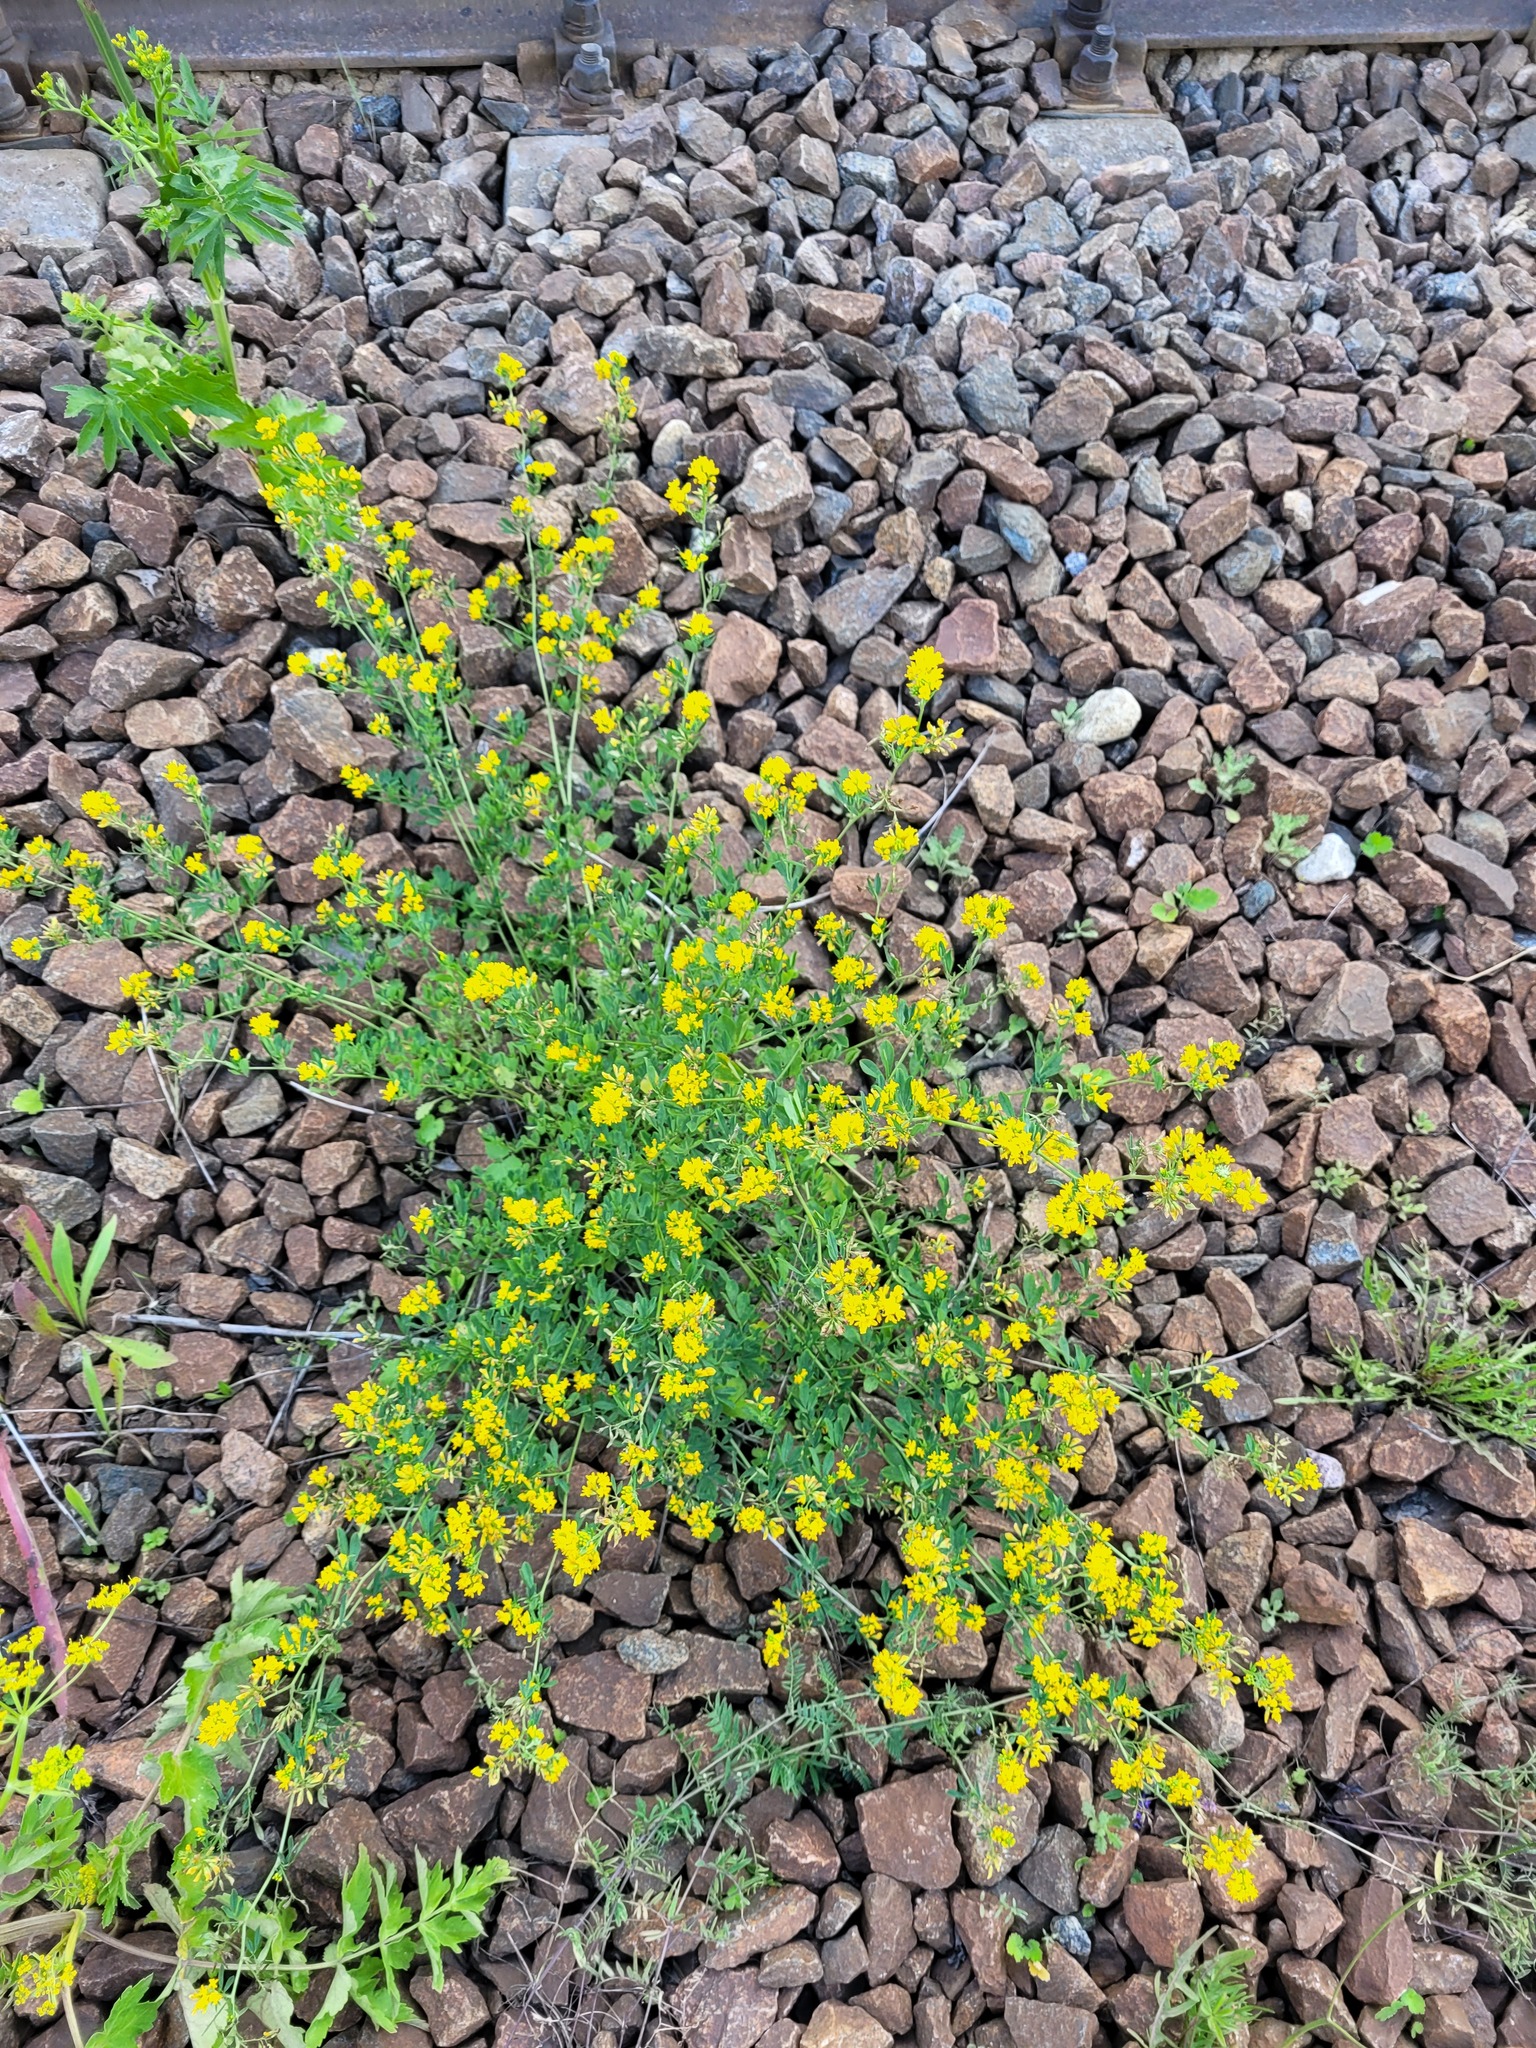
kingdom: Plantae
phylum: Tracheophyta
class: Magnoliopsida
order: Fabales
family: Fabaceae
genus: Medicago
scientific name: Medicago falcata
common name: Sickle medick
